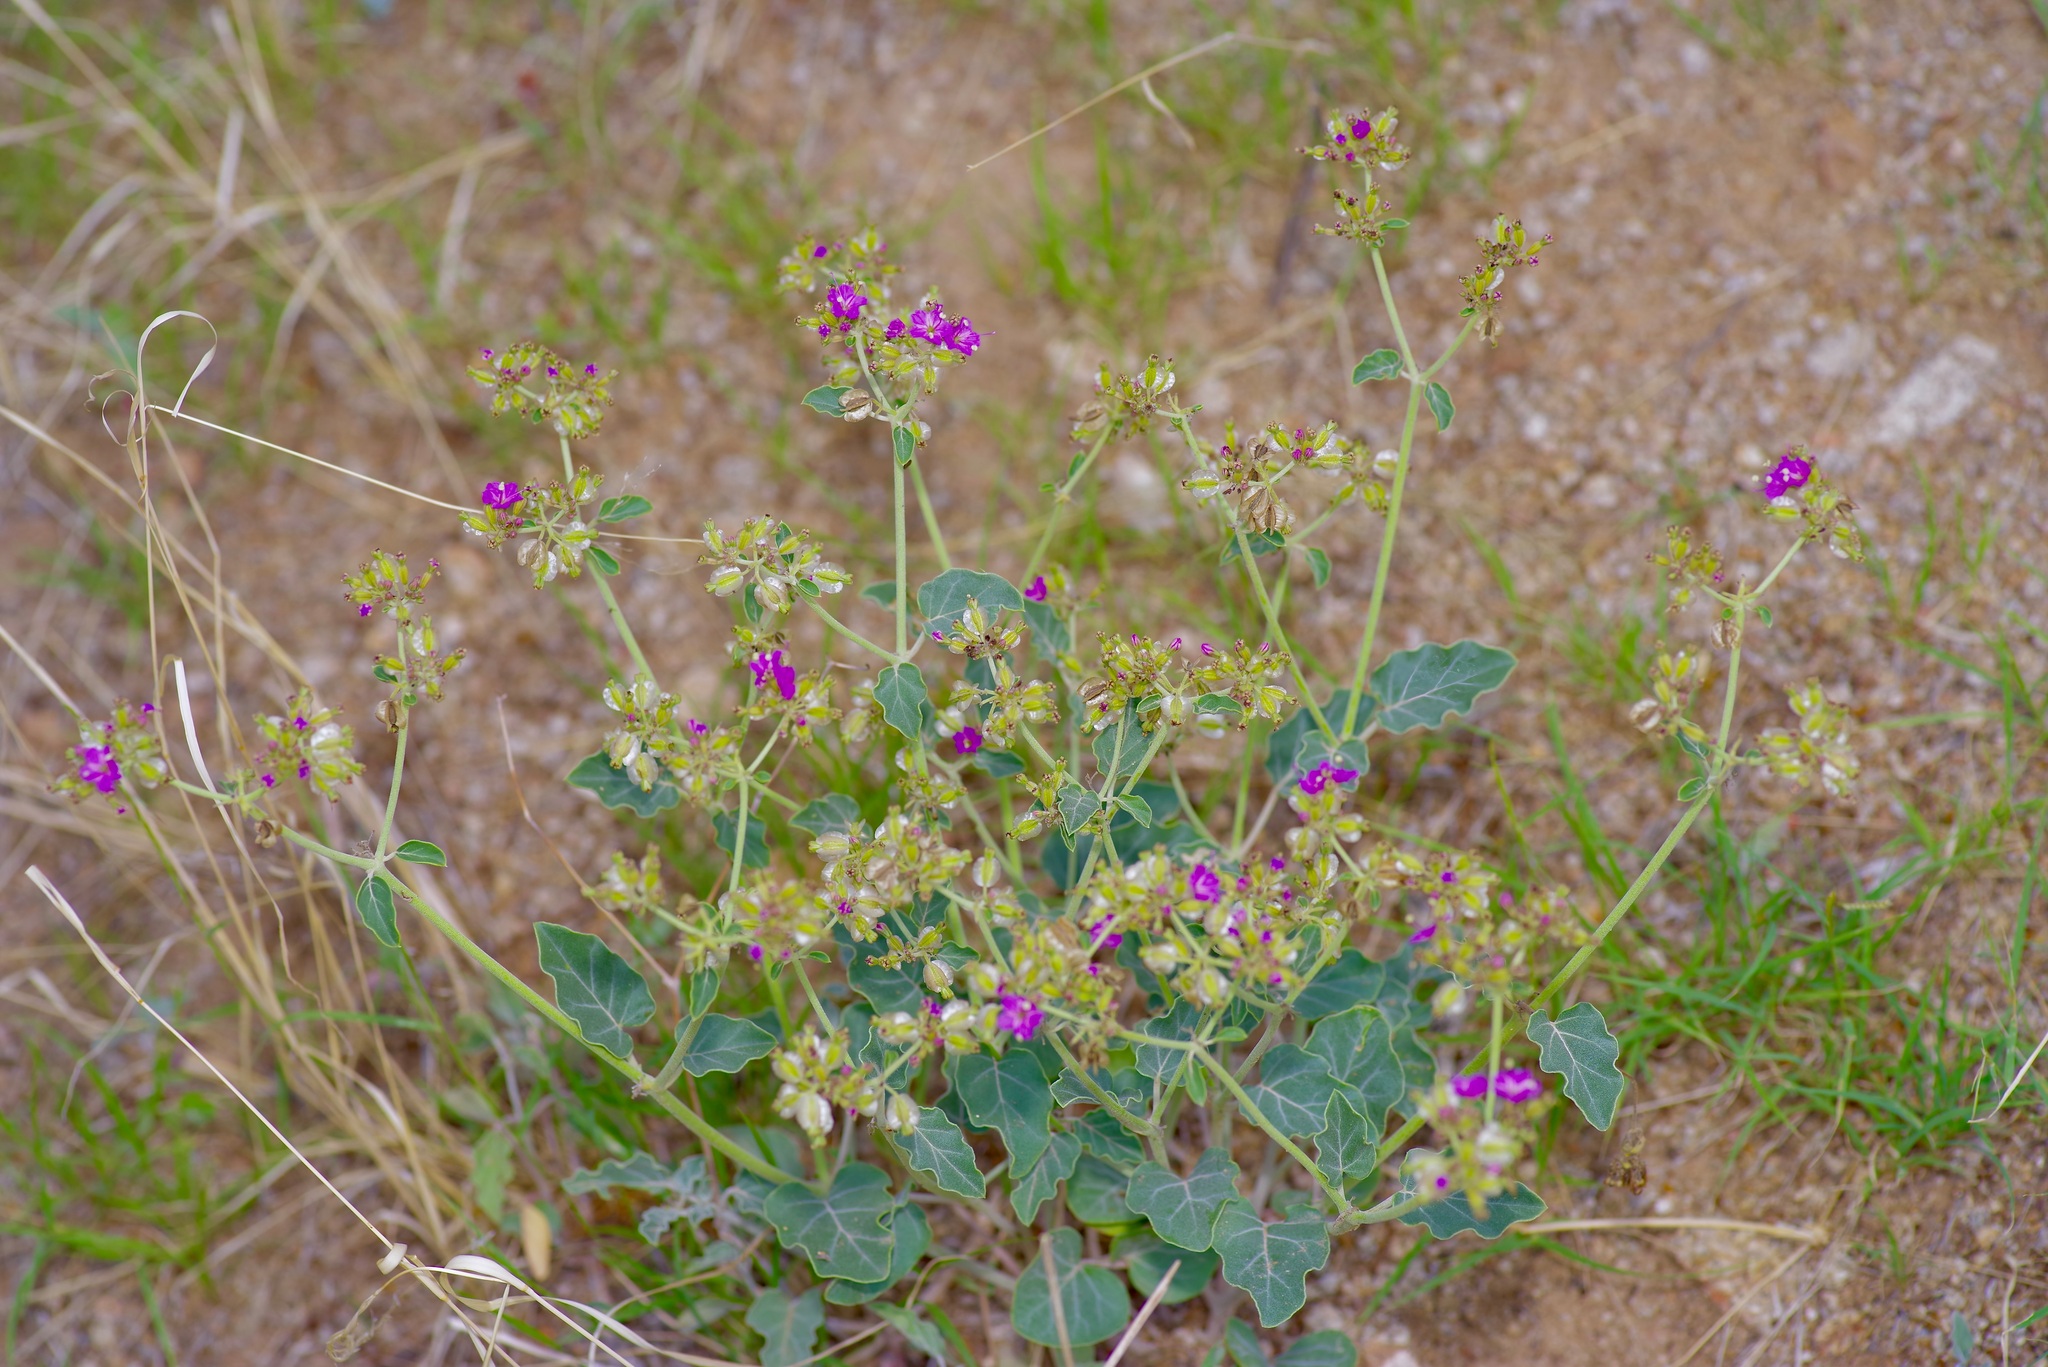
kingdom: Plantae
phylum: Tracheophyta
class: Magnoliopsida
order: Caryophyllales
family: Nyctaginaceae
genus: Acleisanthes
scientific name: Acleisanthes chenopodioides
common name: Goosefoot moonpod
